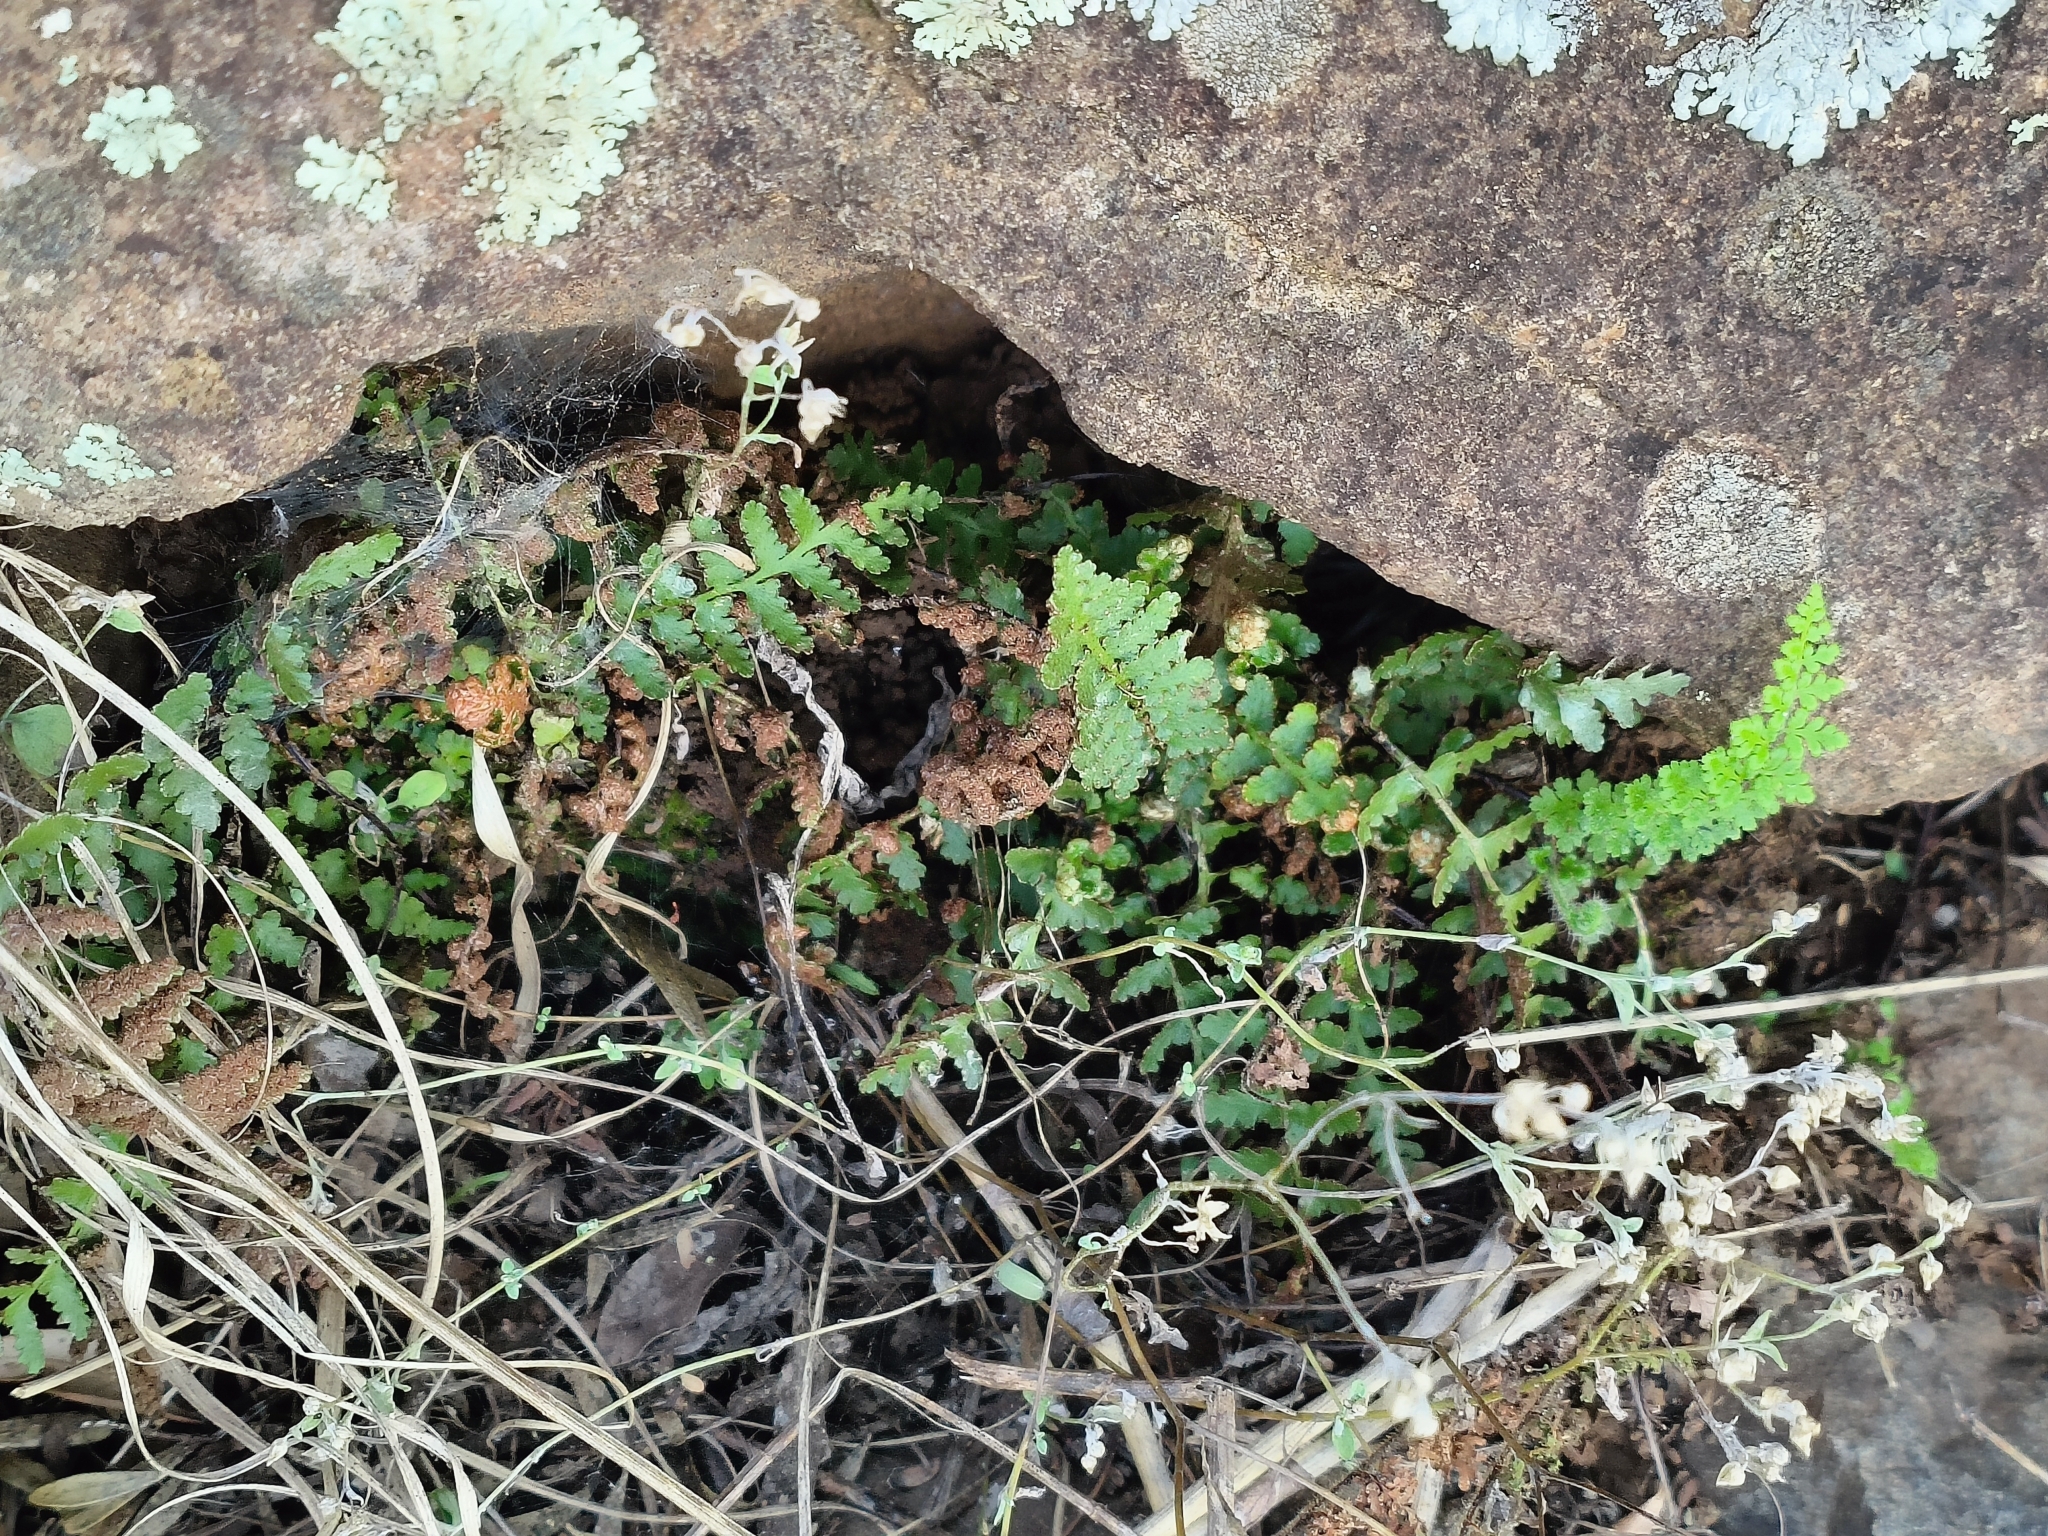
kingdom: Plantae
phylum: Tracheophyta
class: Polypodiopsida
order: Polypodiales
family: Pteridaceae
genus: Cheilanthes
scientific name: Cheilanthes eckloniana
